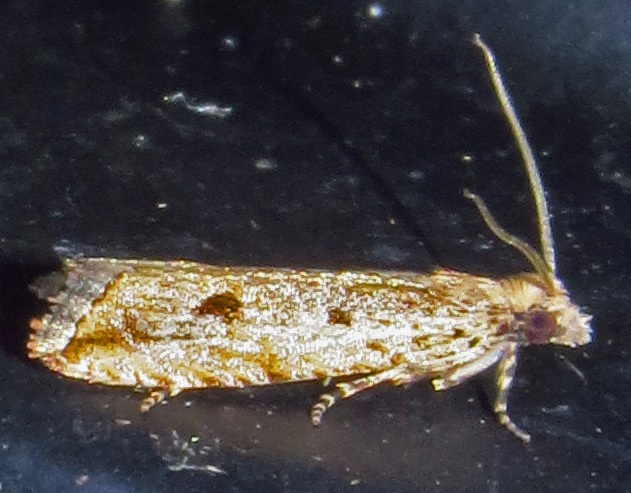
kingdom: Animalia
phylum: Arthropoda
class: Insecta
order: Lepidoptera
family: Tortricidae
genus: Bactra
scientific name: Bactra verutana
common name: Javelin moth
